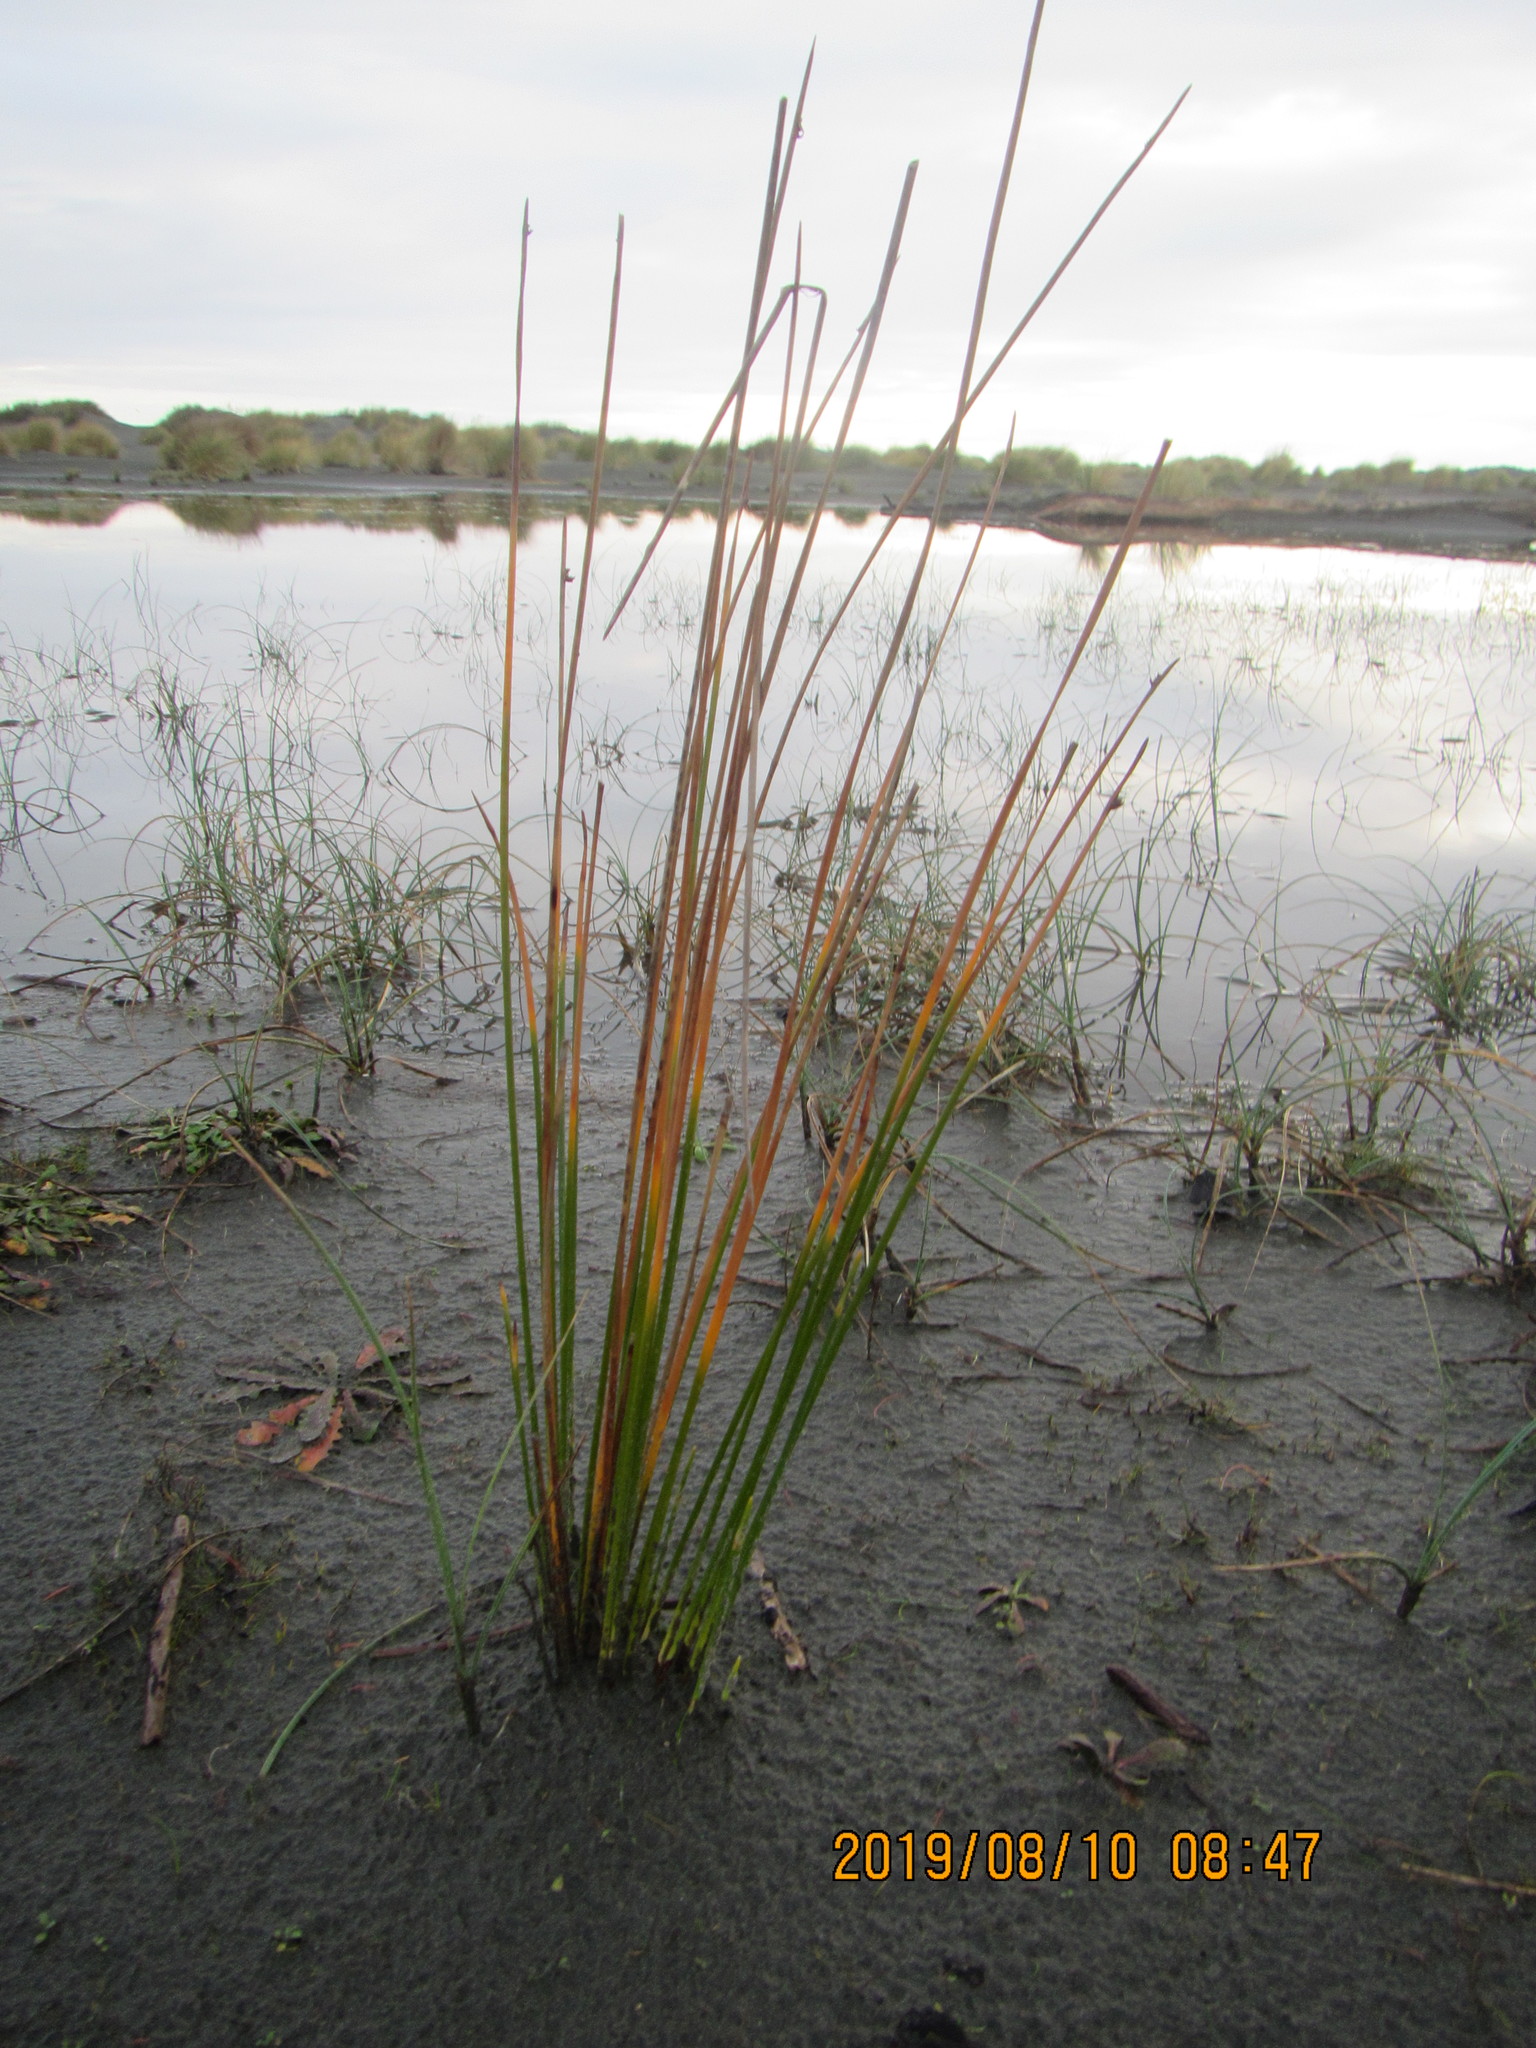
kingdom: Plantae
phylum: Tracheophyta
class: Liliopsida
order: Poales
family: Cyperaceae
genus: Ficinia
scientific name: Ficinia nodosa
